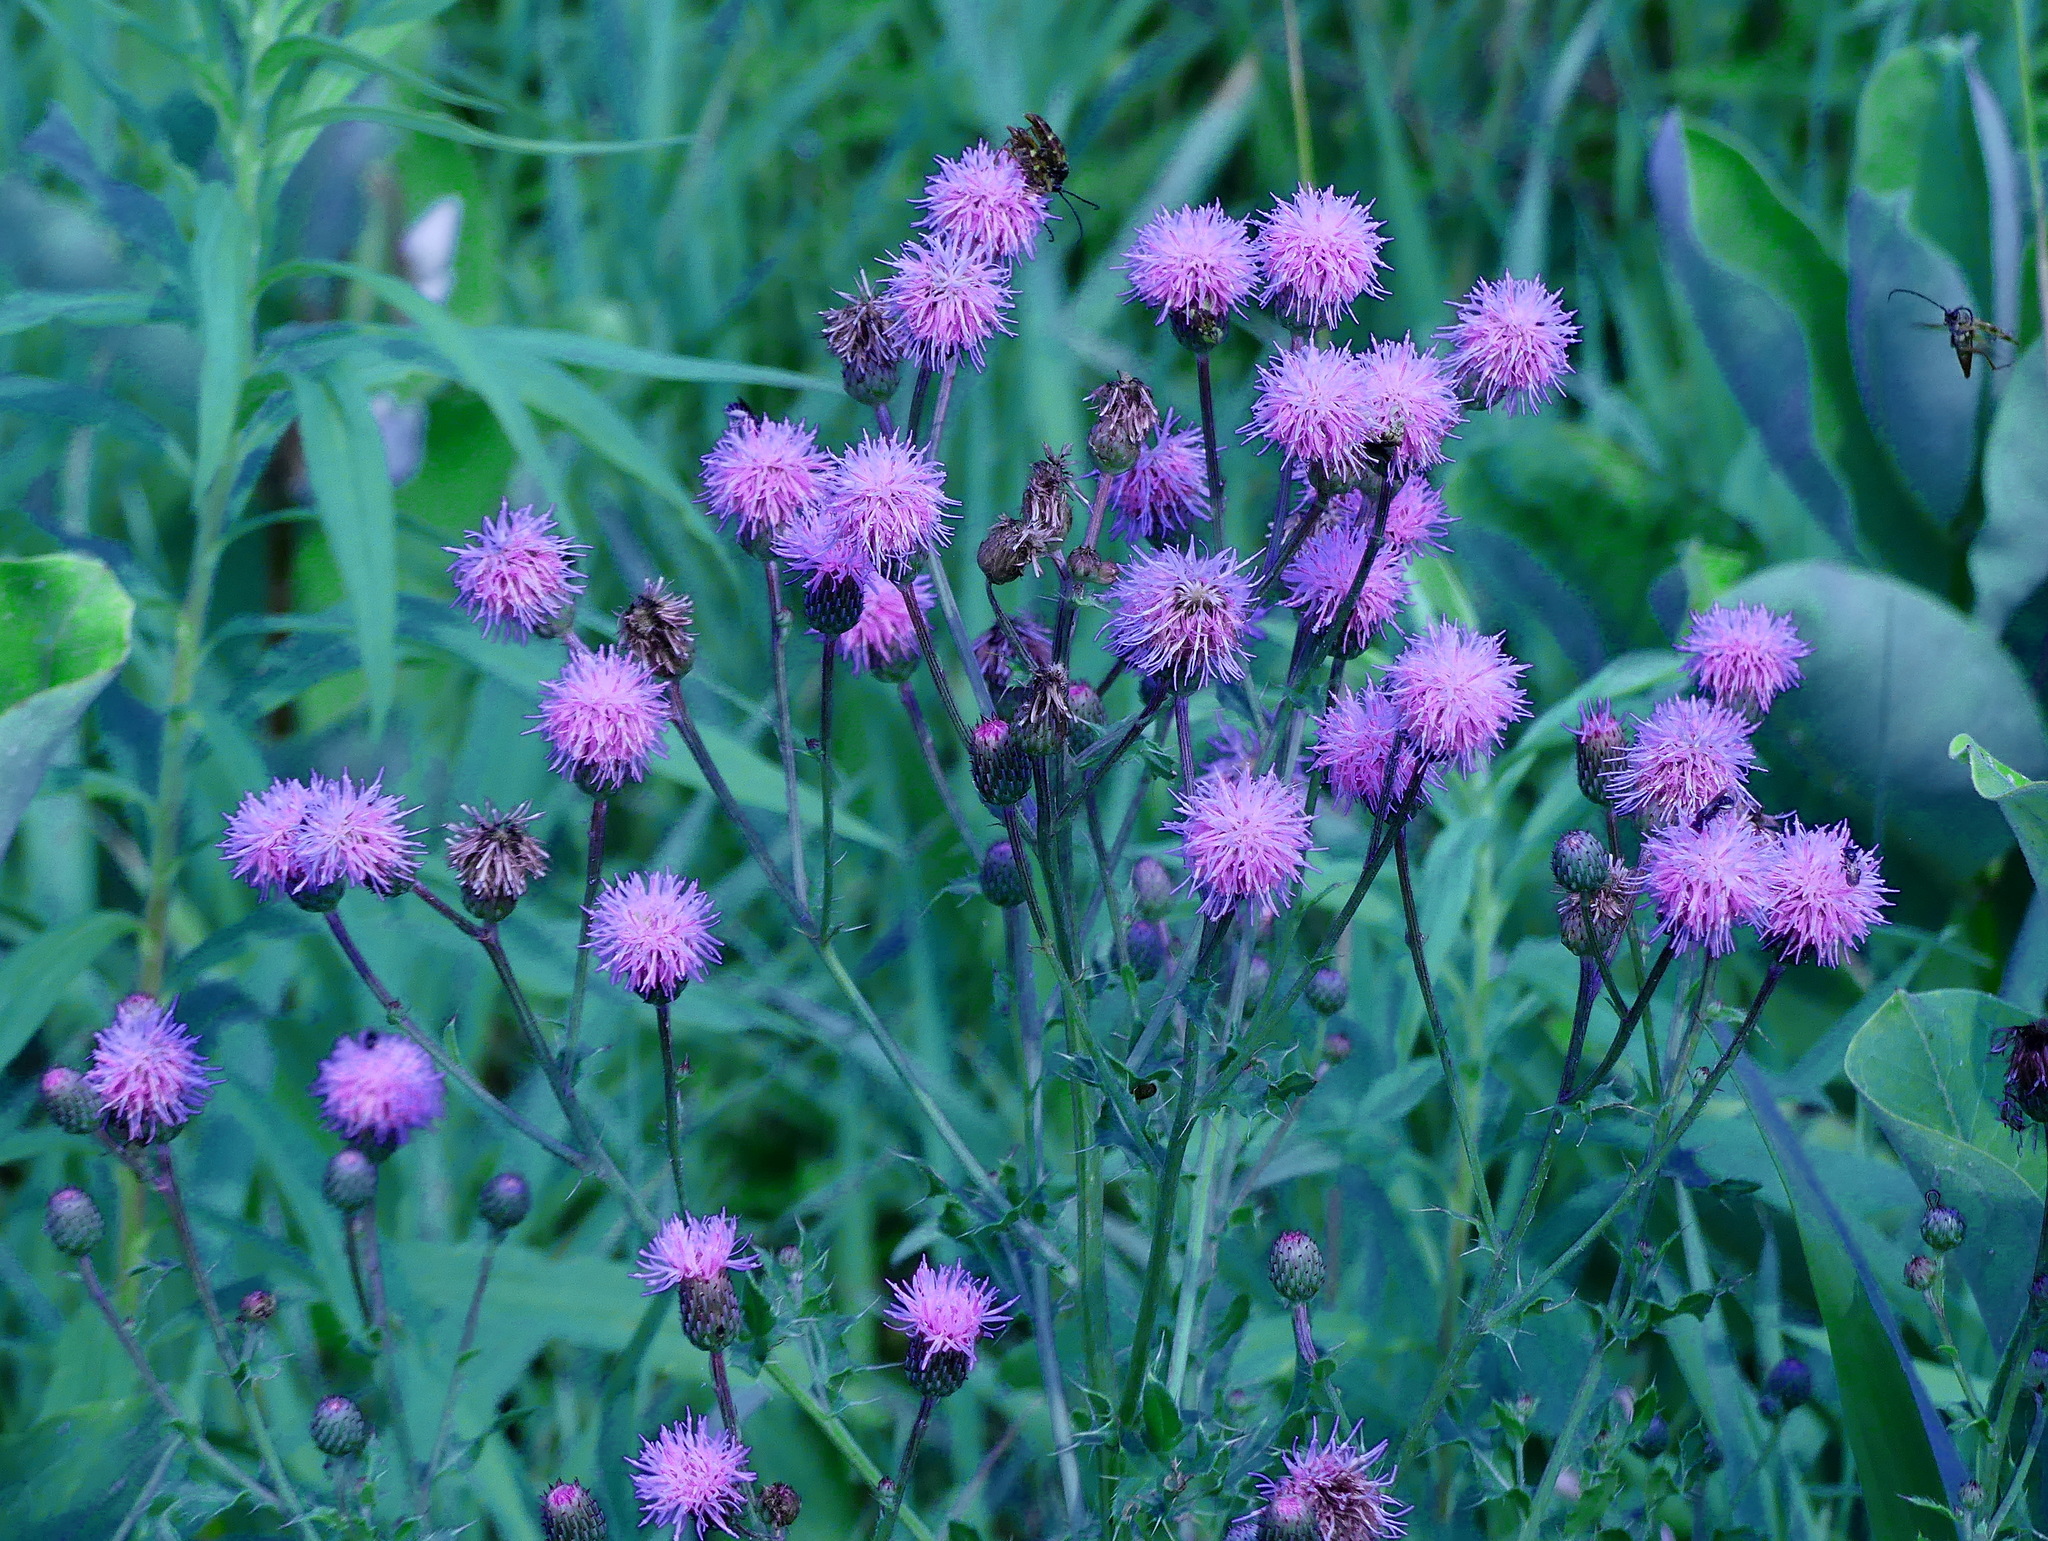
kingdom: Plantae
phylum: Tracheophyta
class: Magnoliopsida
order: Asterales
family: Asteraceae
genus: Cirsium
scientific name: Cirsium arvense
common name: Creeping thistle
